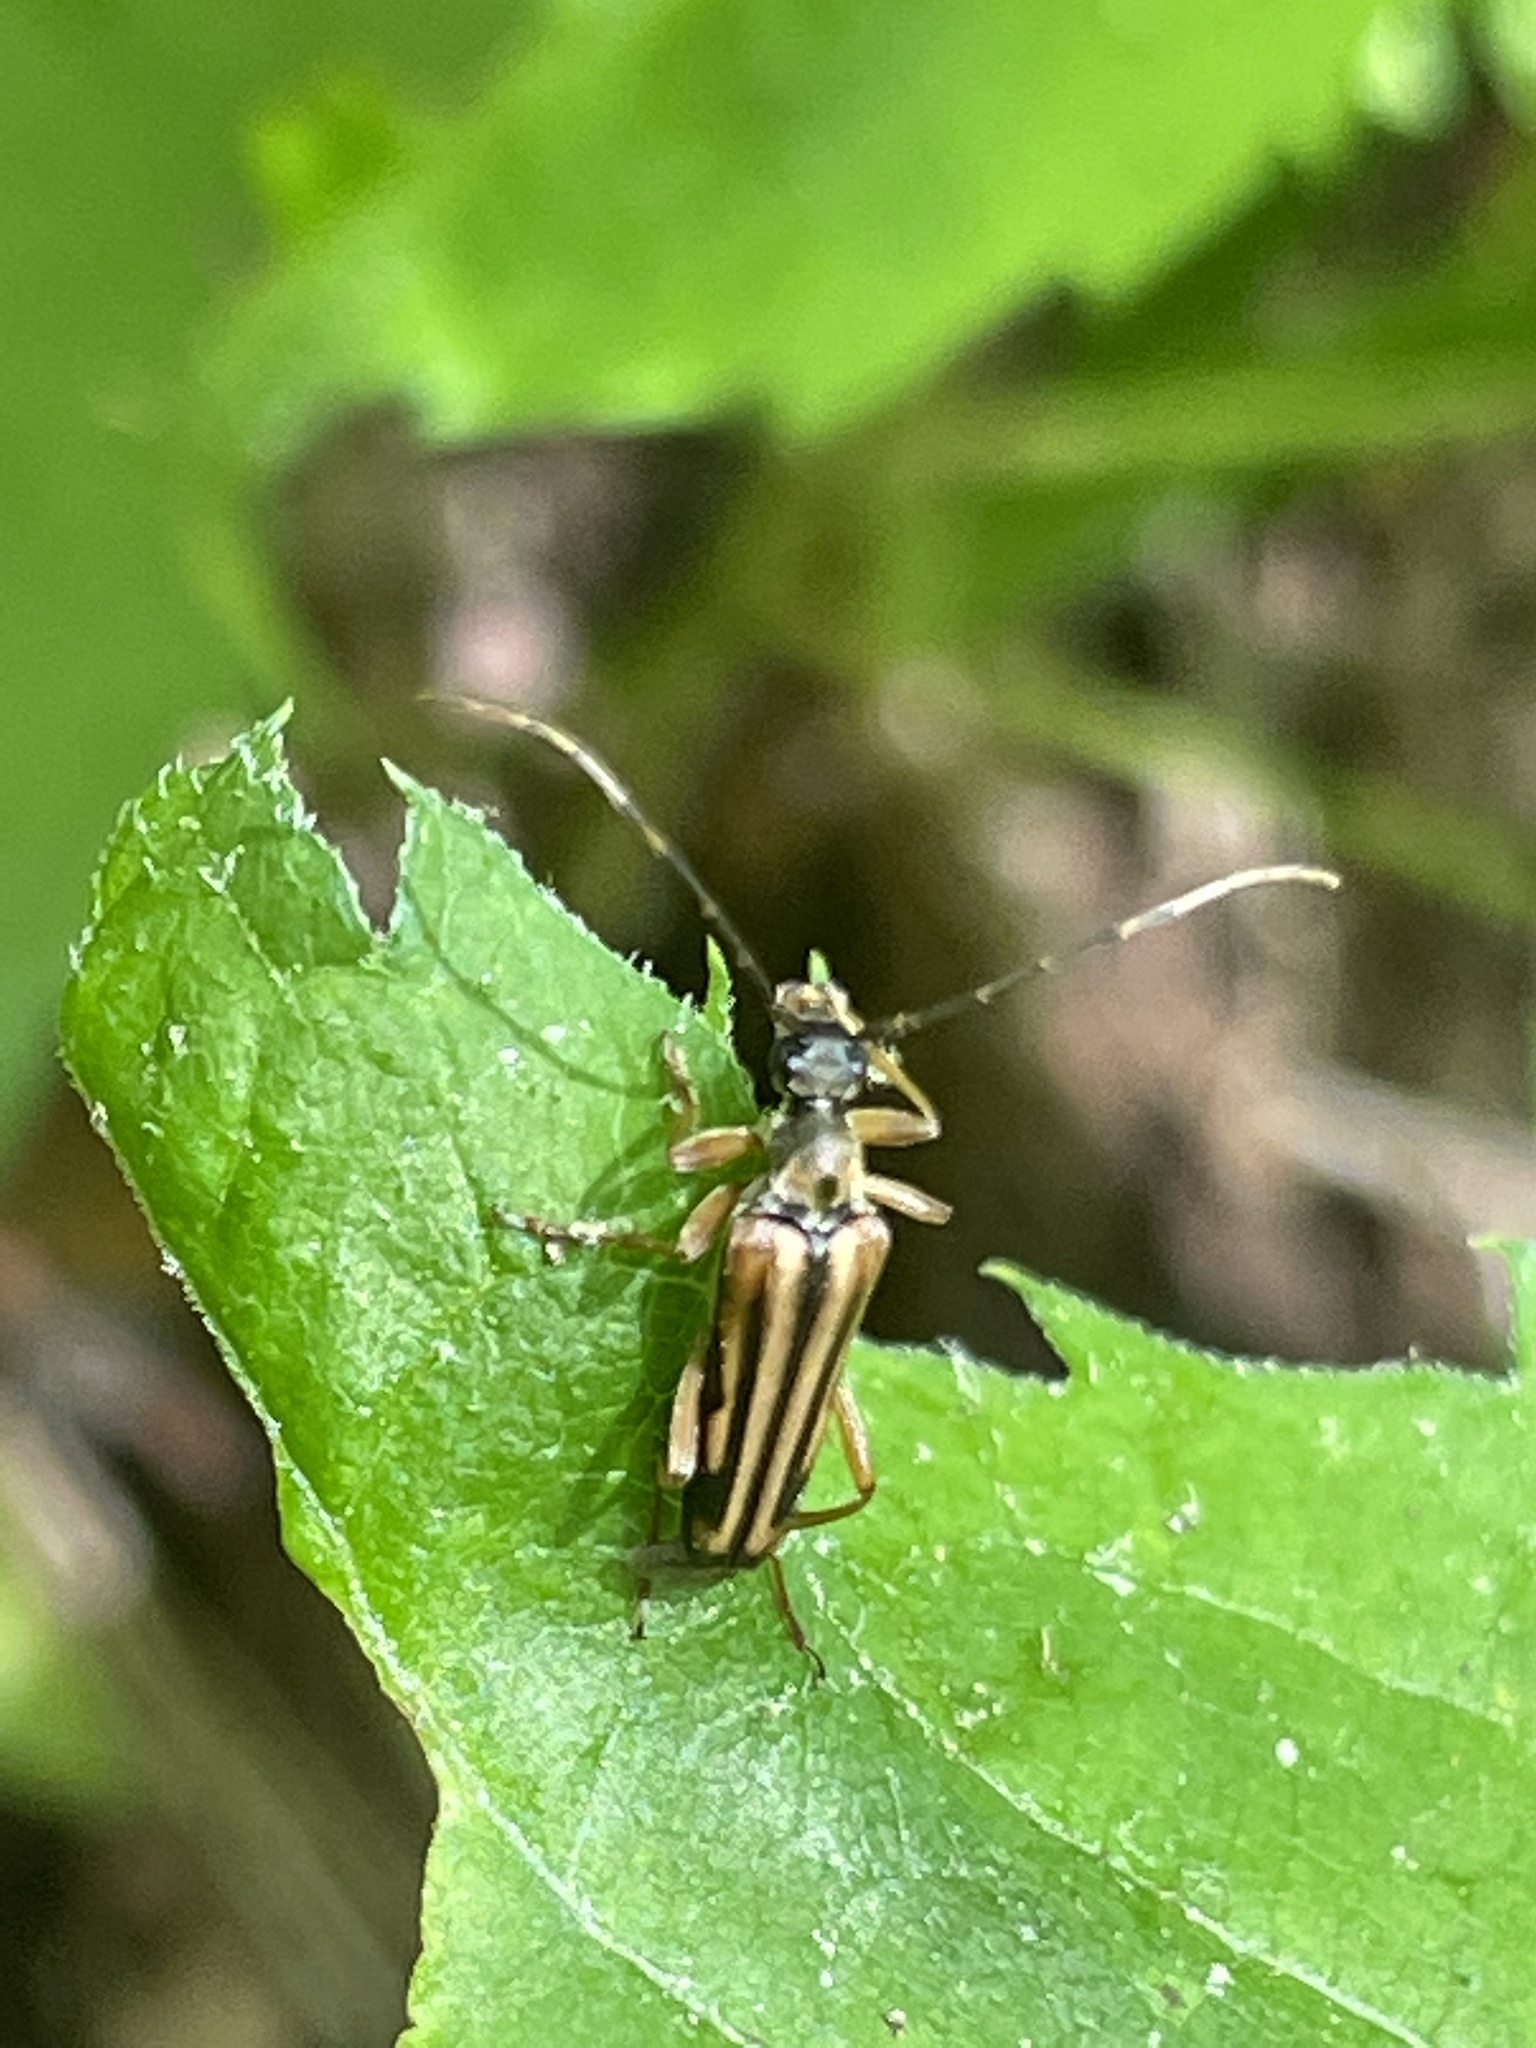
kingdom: Animalia
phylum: Arthropoda
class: Insecta
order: Coleoptera
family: Cerambycidae
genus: Analeptura
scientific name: Analeptura lineola
